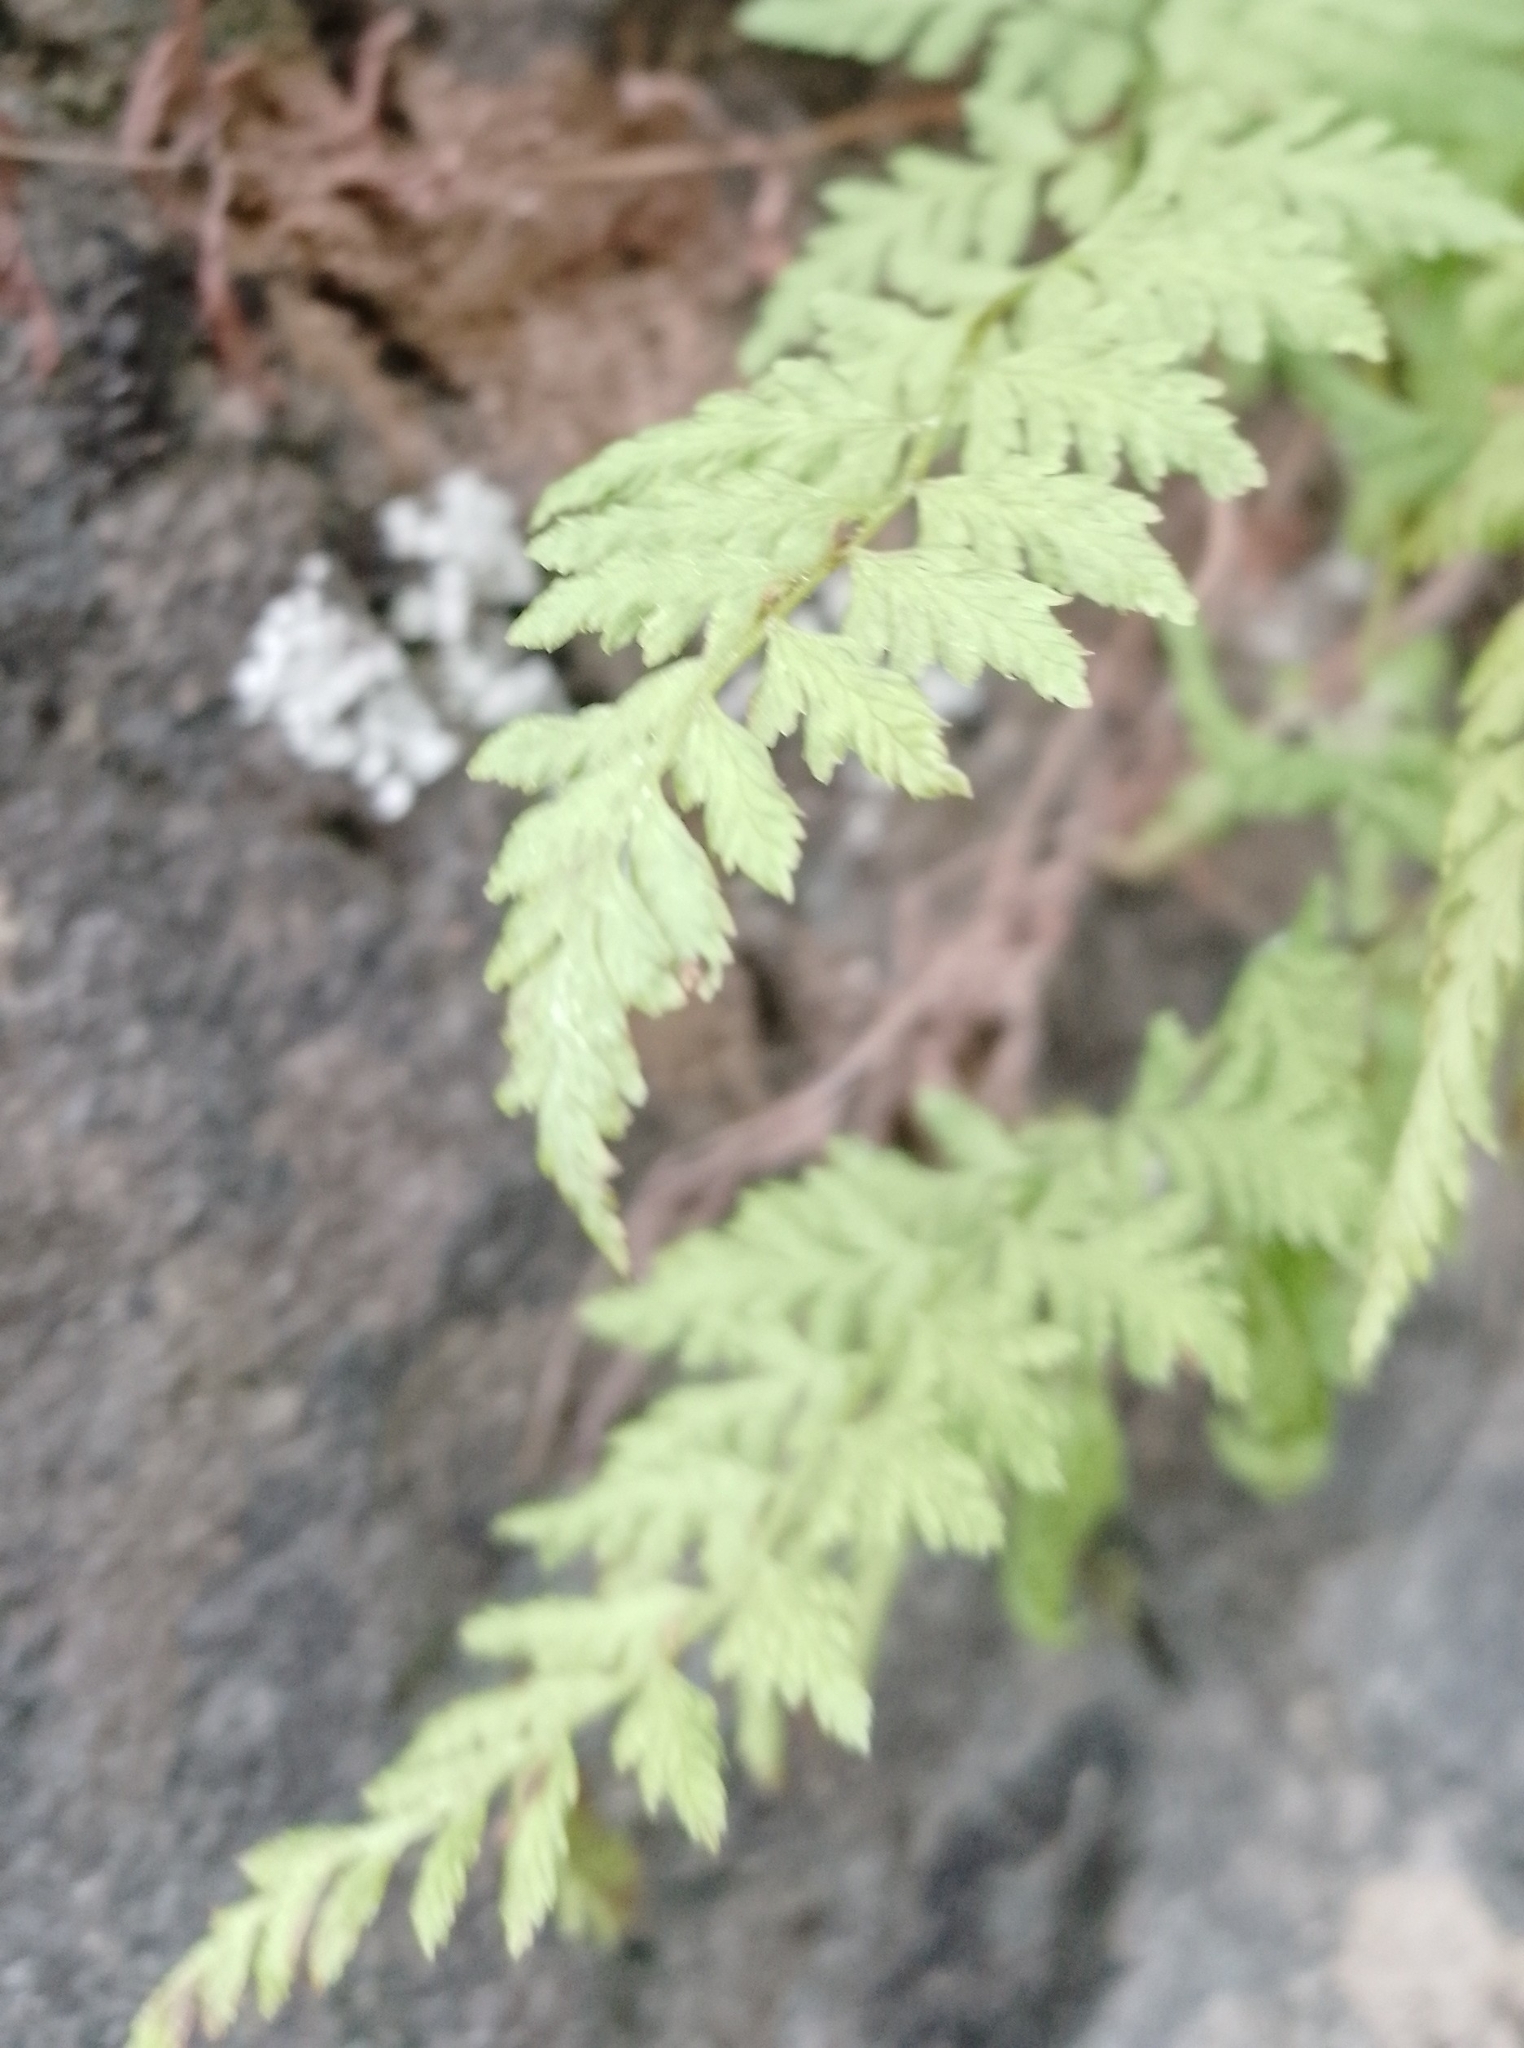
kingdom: Plantae
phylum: Tracheophyta
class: Polypodiopsida
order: Polypodiales
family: Cystopteridaceae
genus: Cystopteris
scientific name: Cystopteris fragilis
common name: Brittle bladder fern
